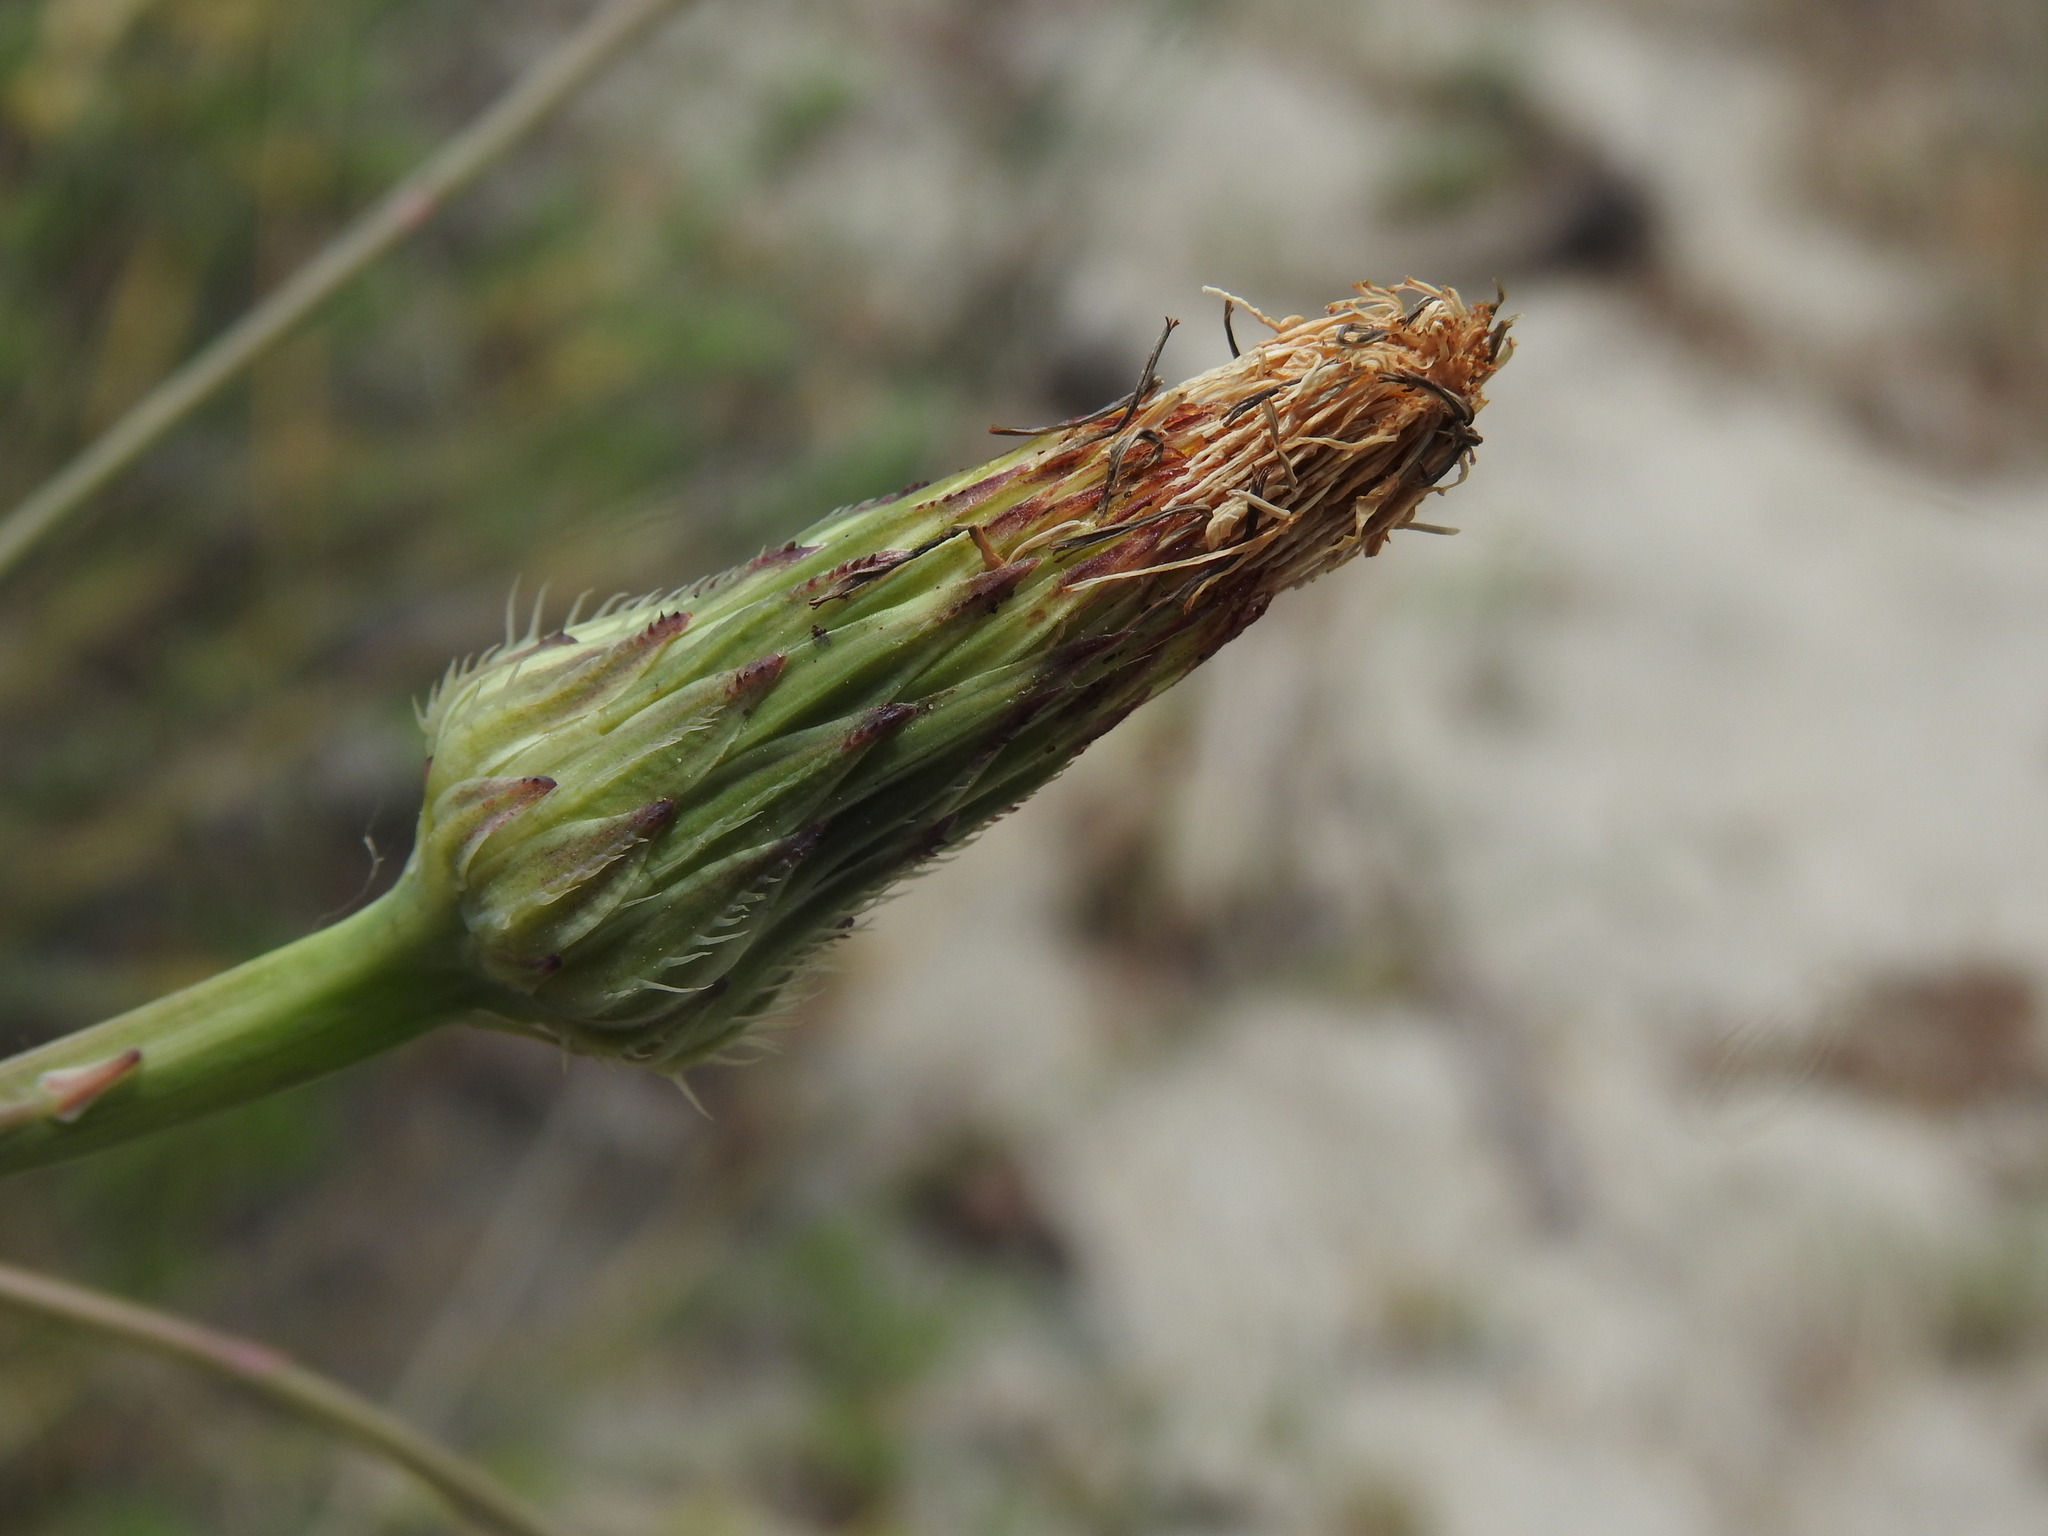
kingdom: Plantae
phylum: Tracheophyta
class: Magnoliopsida
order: Asterales
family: Asteraceae
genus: Hypochaeris
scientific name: Hypochaeris radicata
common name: Flatweed
